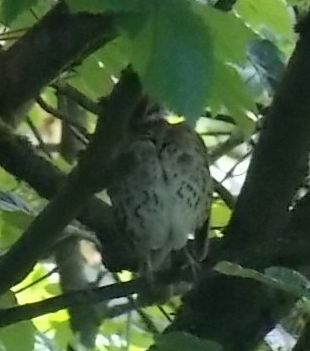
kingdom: Animalia
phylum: Chordata
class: Aves
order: Passeriformes
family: Turdidae
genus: Turdus
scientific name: Turdus philomelos
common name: Song thrush
